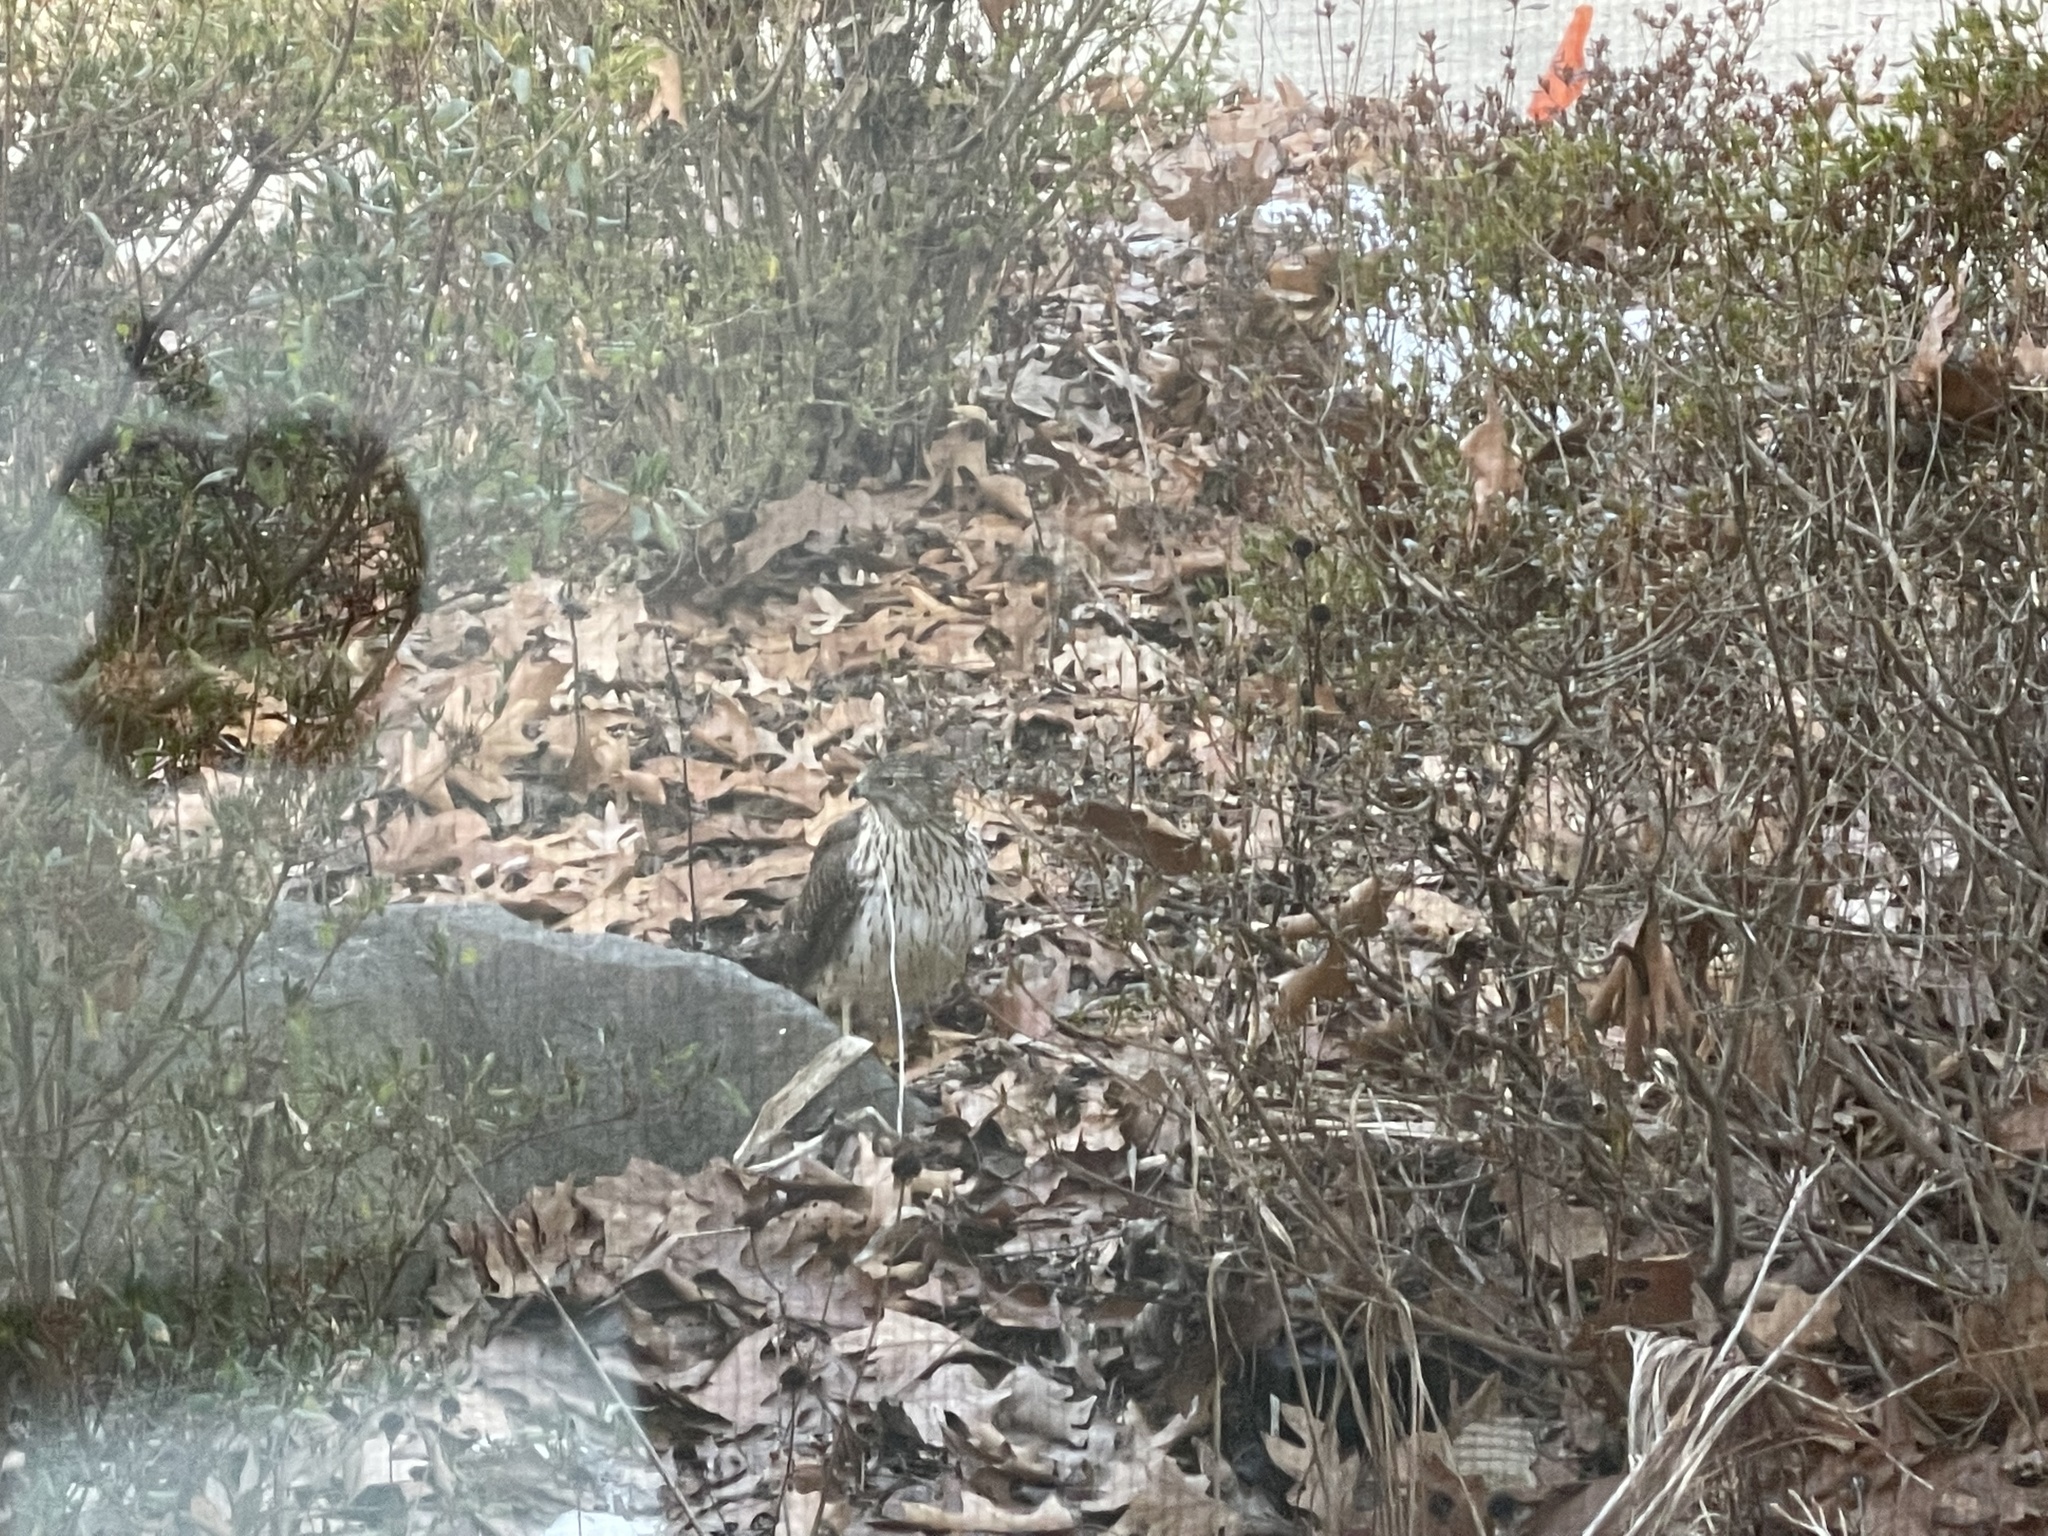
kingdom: Animalia
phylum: Chordata
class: Aves
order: Accipitriformes
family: Accipitridae
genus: Accipiter
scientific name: Accipiter cooperii
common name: Cooper's hawk
